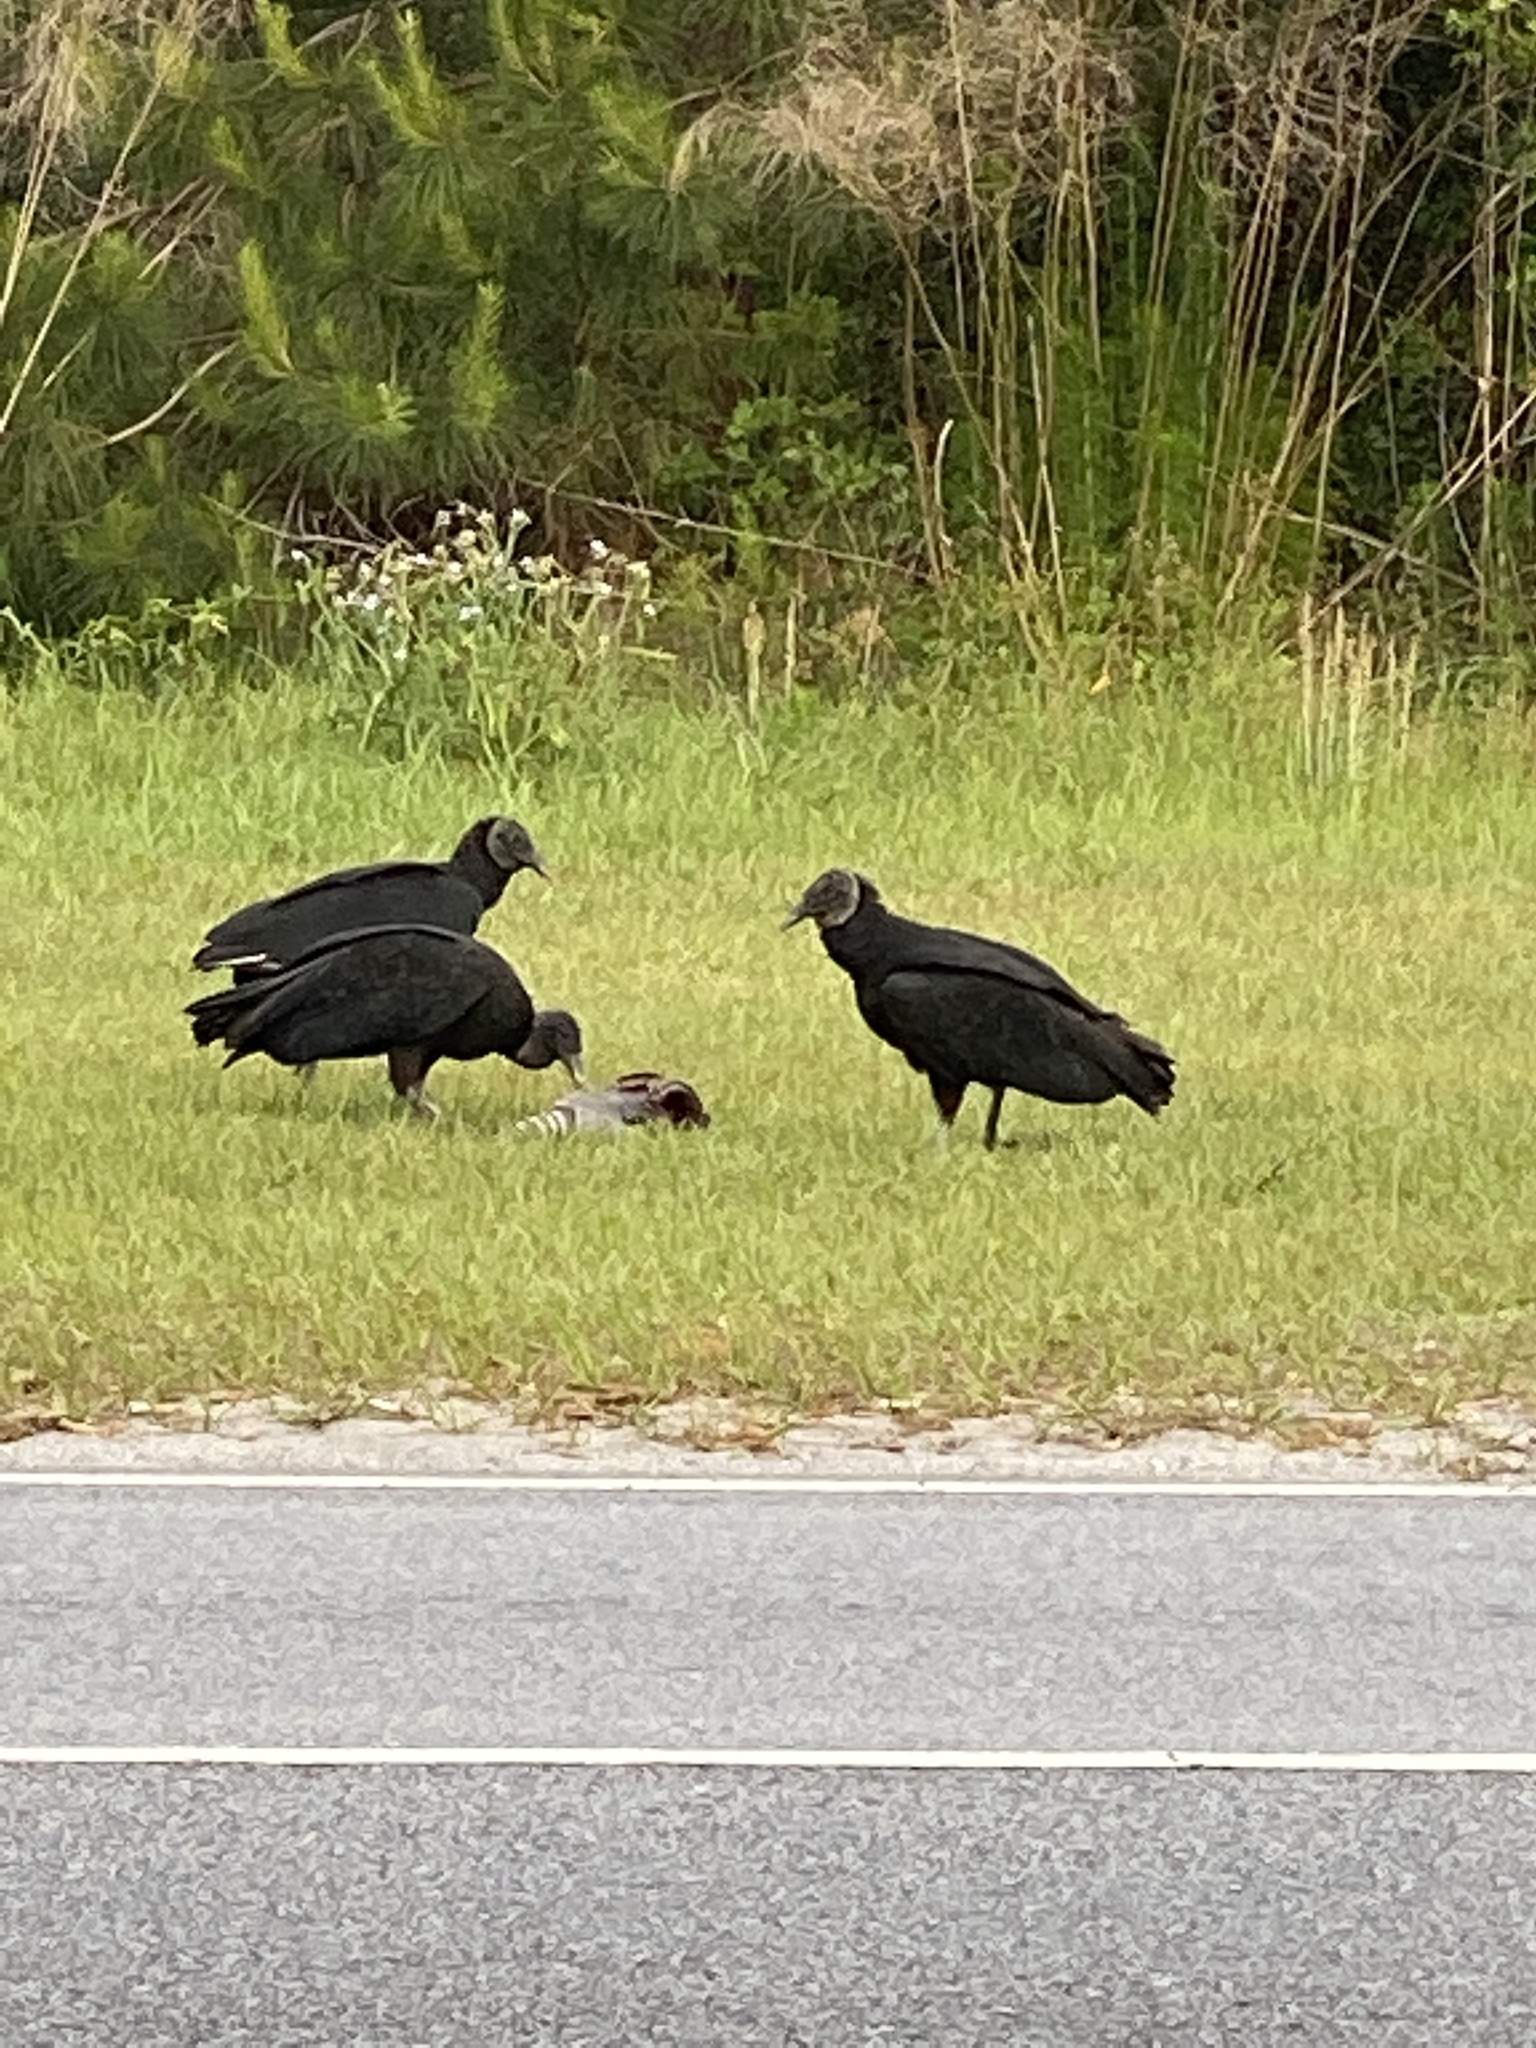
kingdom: Animalia
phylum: Chordata
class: Aves
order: Accipitriformes
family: Cathartidae
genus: Coragyps
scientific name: Coragyps atratus
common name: Black vulture
